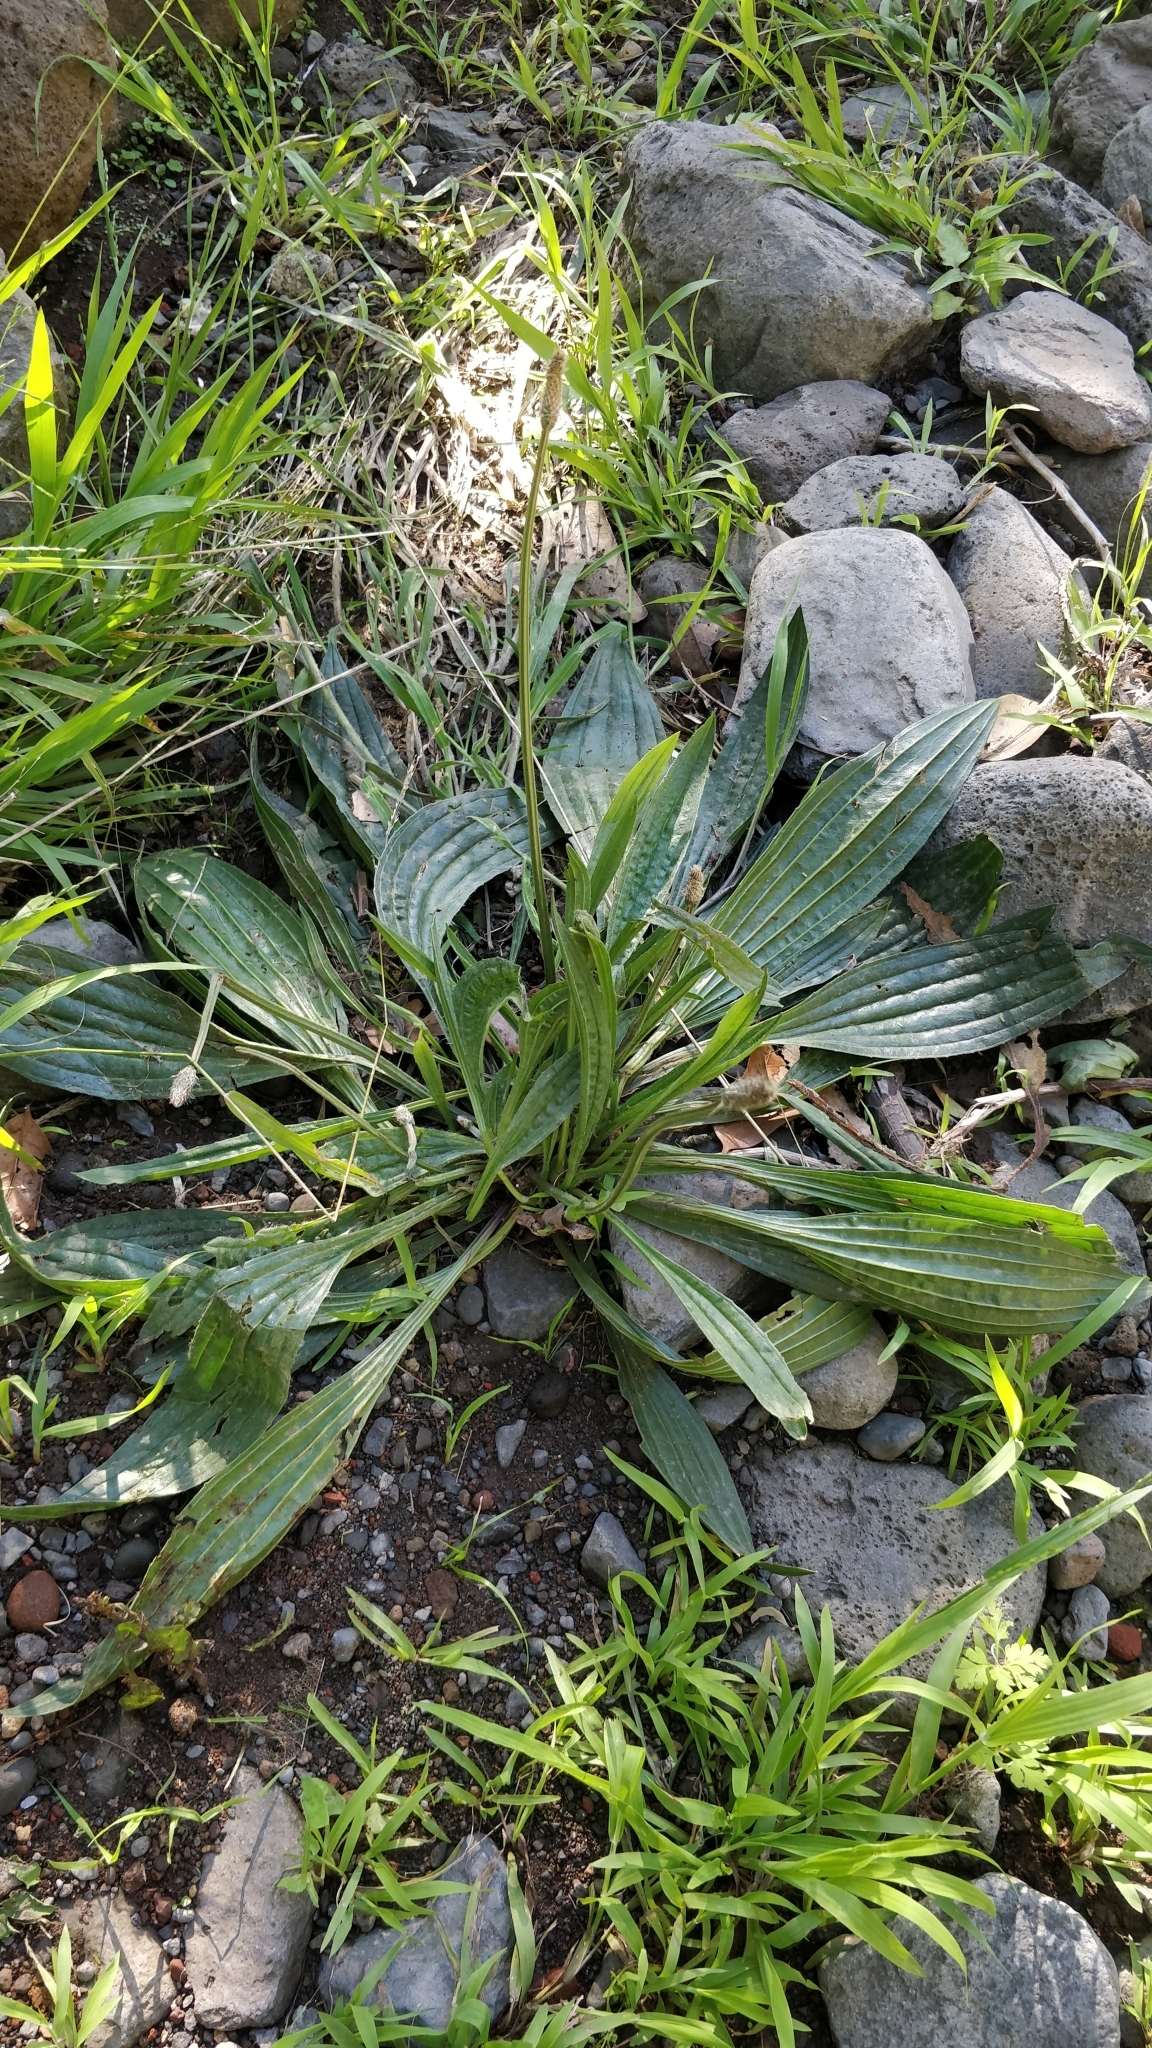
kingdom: Plantae
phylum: Tracheophyta
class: Magnoliopsida
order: Lamiales
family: Plantaginaceae
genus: Plantago
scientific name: Plantago lanceolata
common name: Ribwort plantain
